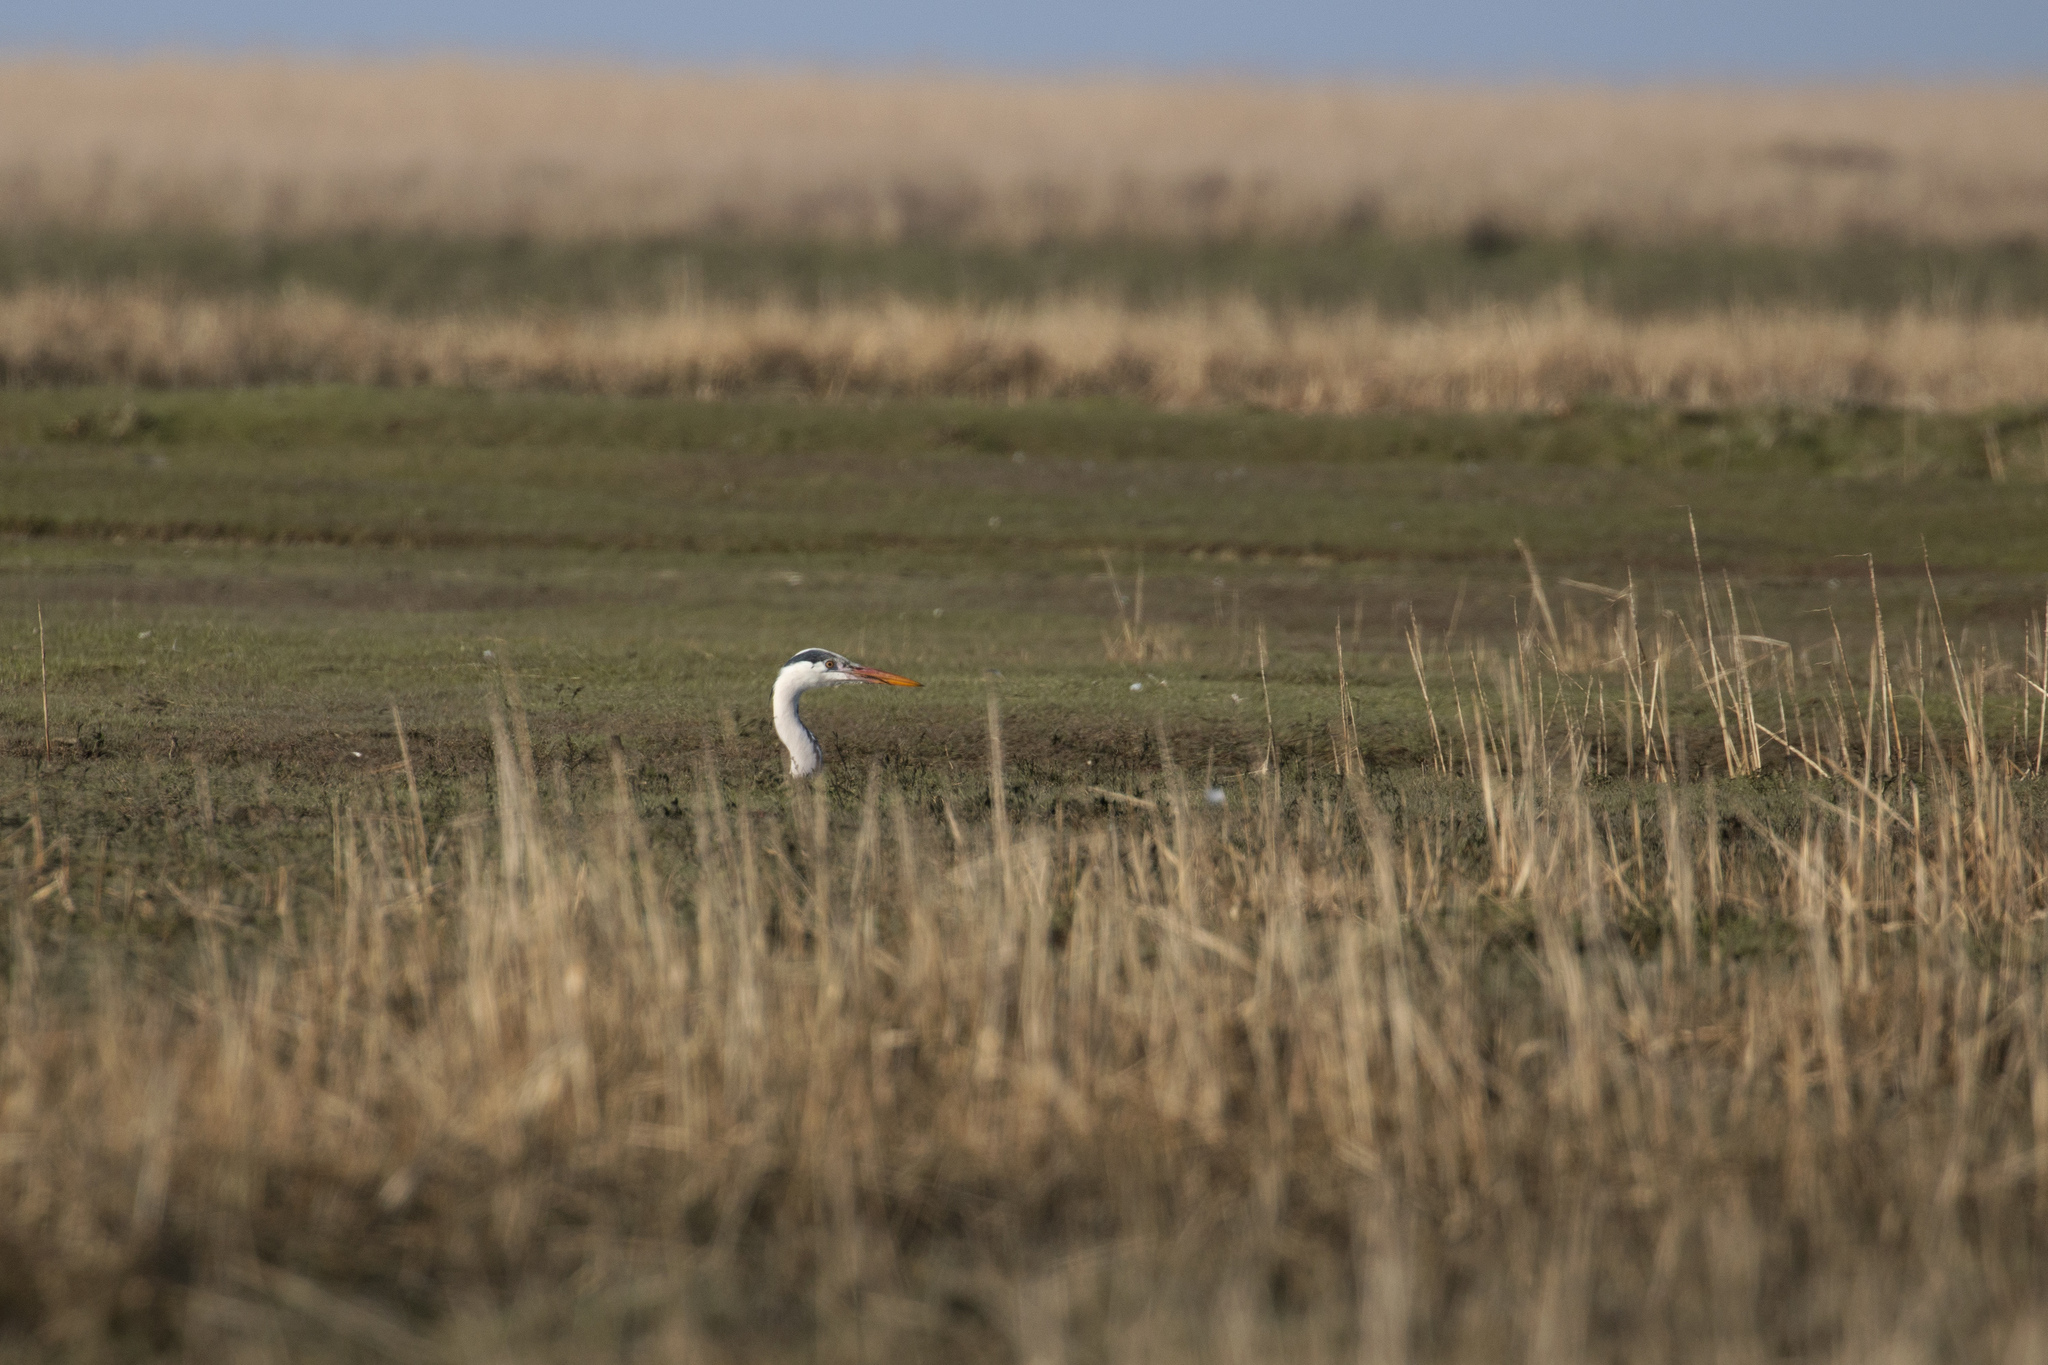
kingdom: Animalia
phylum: Chordata
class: Aves
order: Pelecaniformes
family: Ardeidae
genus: Ardea
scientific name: Ardea cinerea
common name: Grey heron
